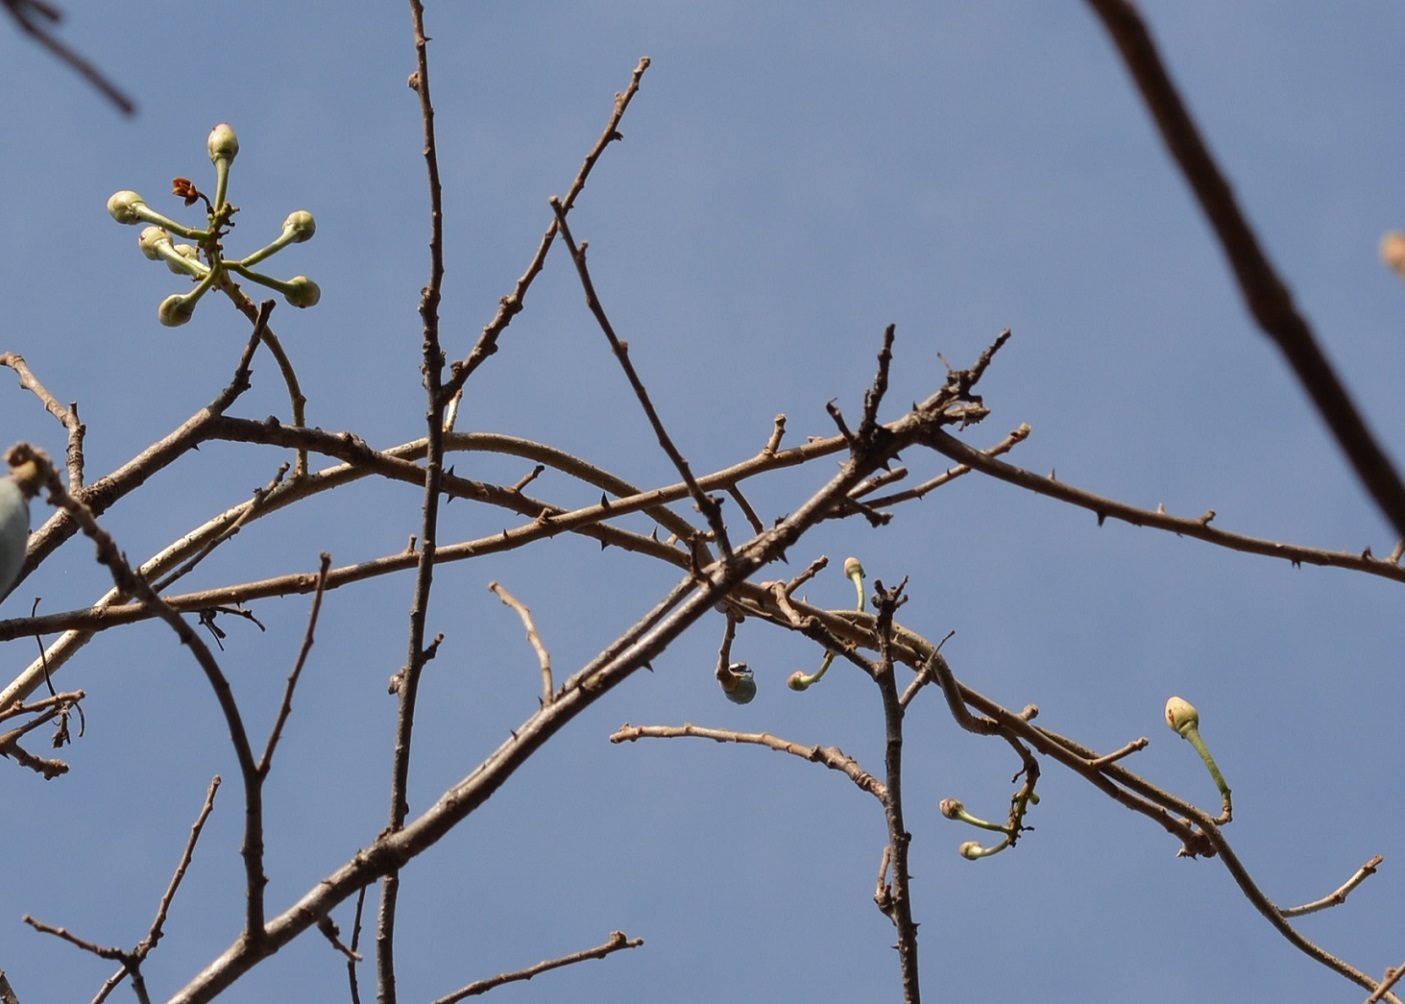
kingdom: Plantae
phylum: Tracheophyta
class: Magnoliopsida
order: Solanales
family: Convolvulaceae
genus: Ipomoea
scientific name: Ipomoea populina
